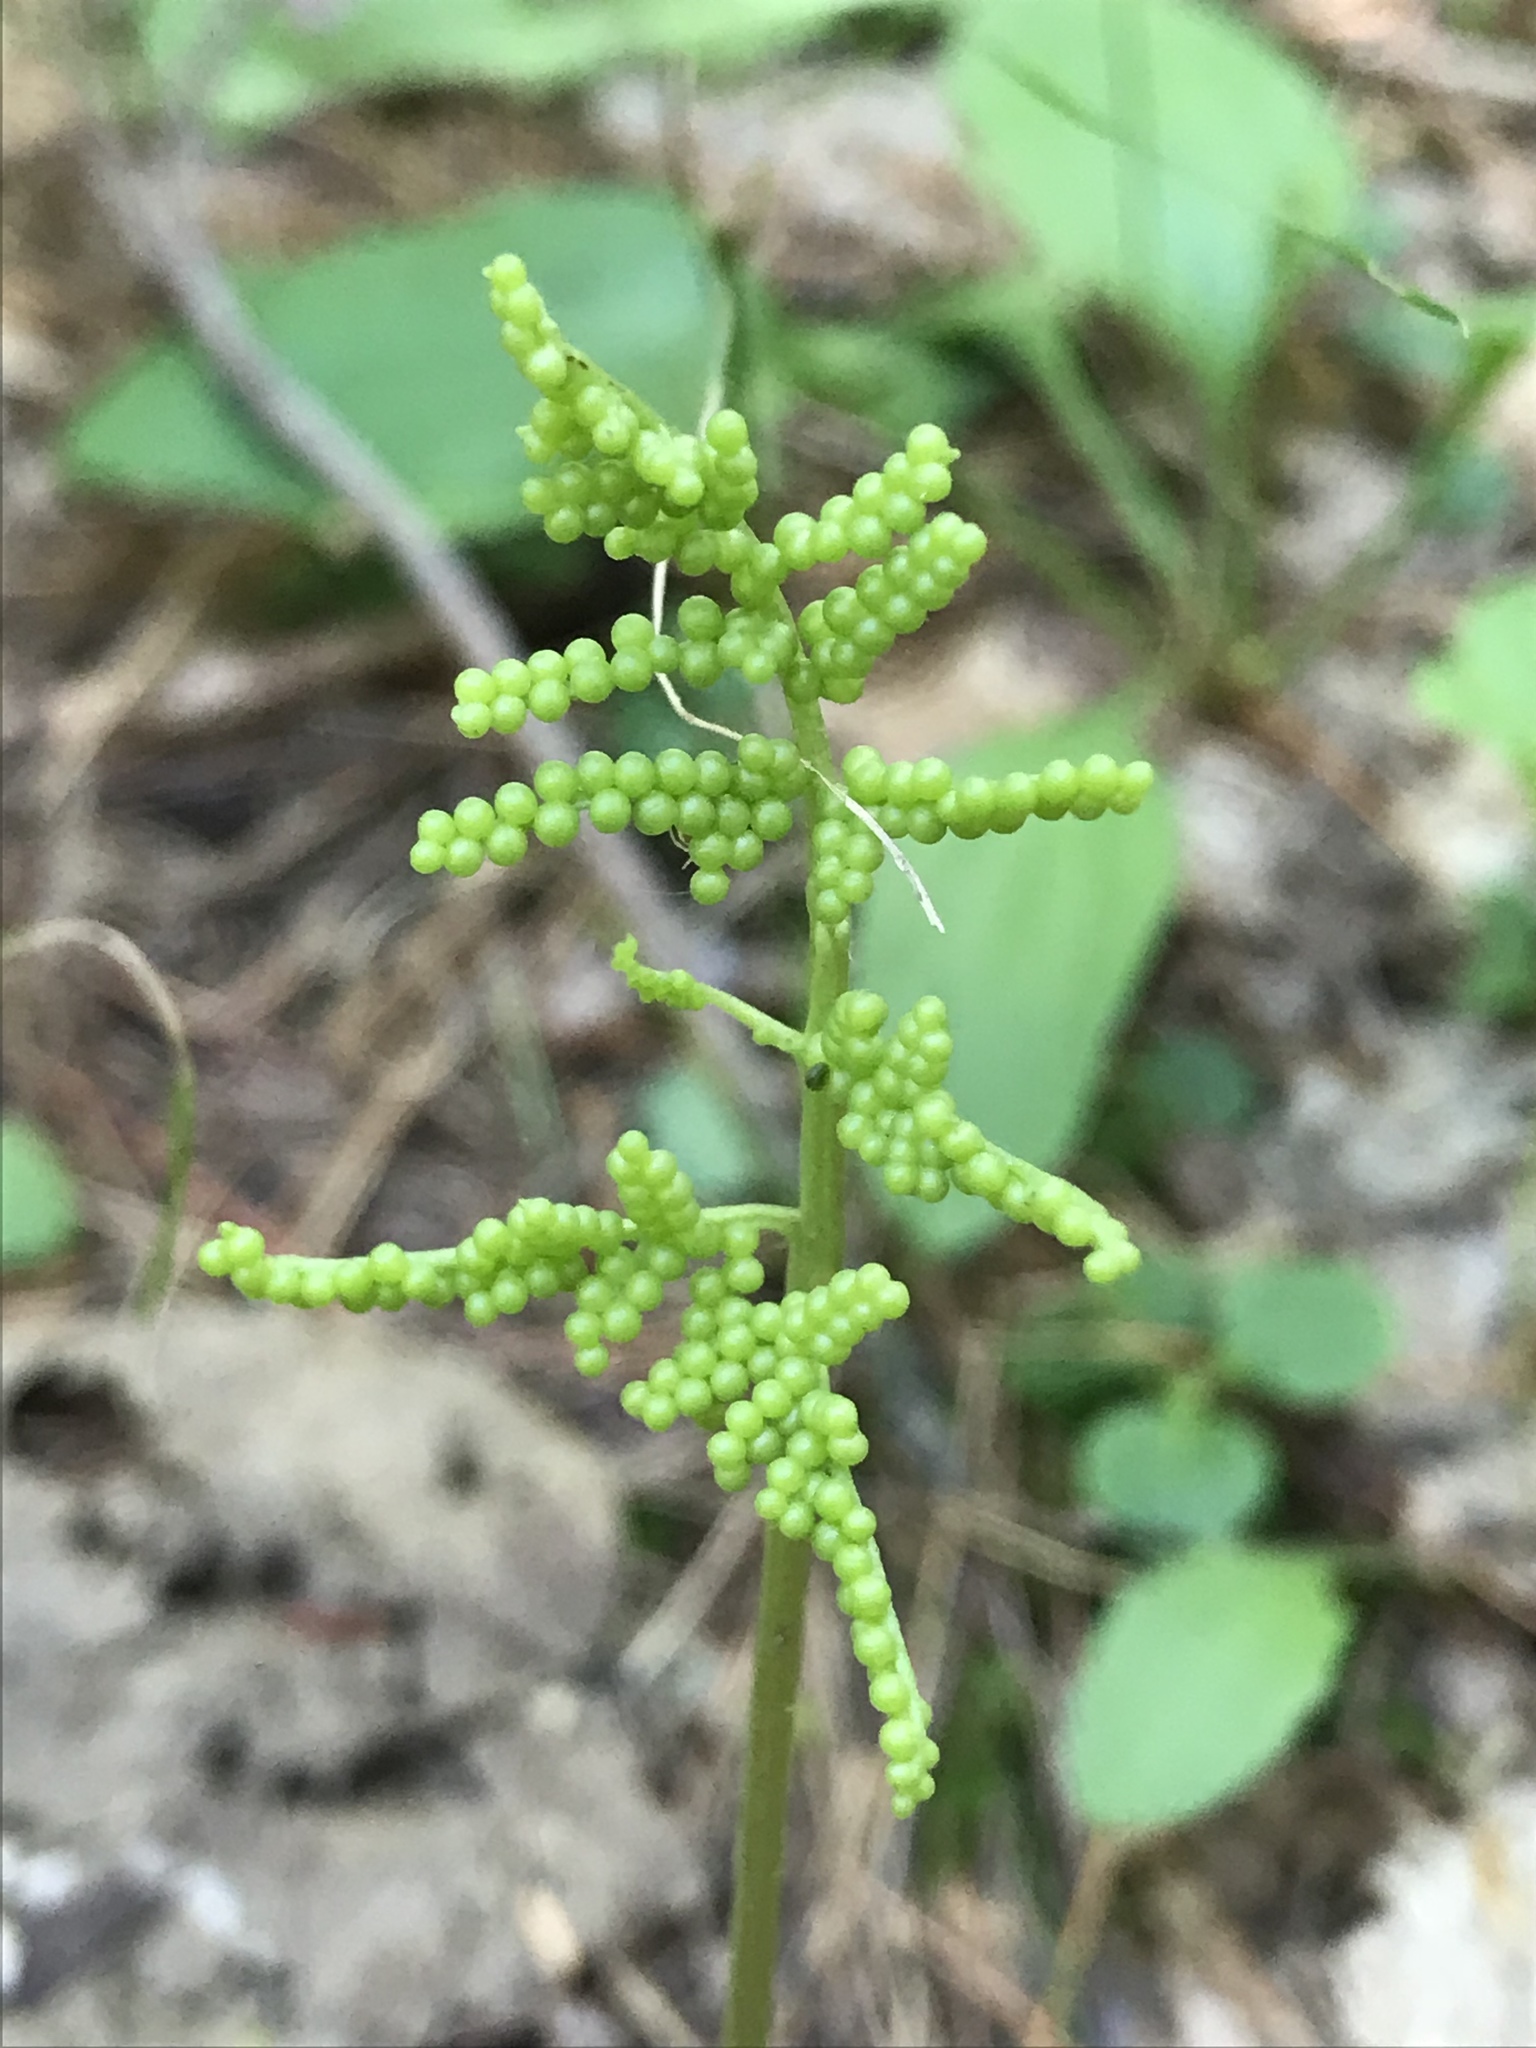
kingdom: Plantae
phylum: Tracheophyta
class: Polypodiopsida
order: Ophioglossales
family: Ophioglossaceae
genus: Sceptridium
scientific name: Sceptridium dissectum
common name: Cut-leaved grapefern
